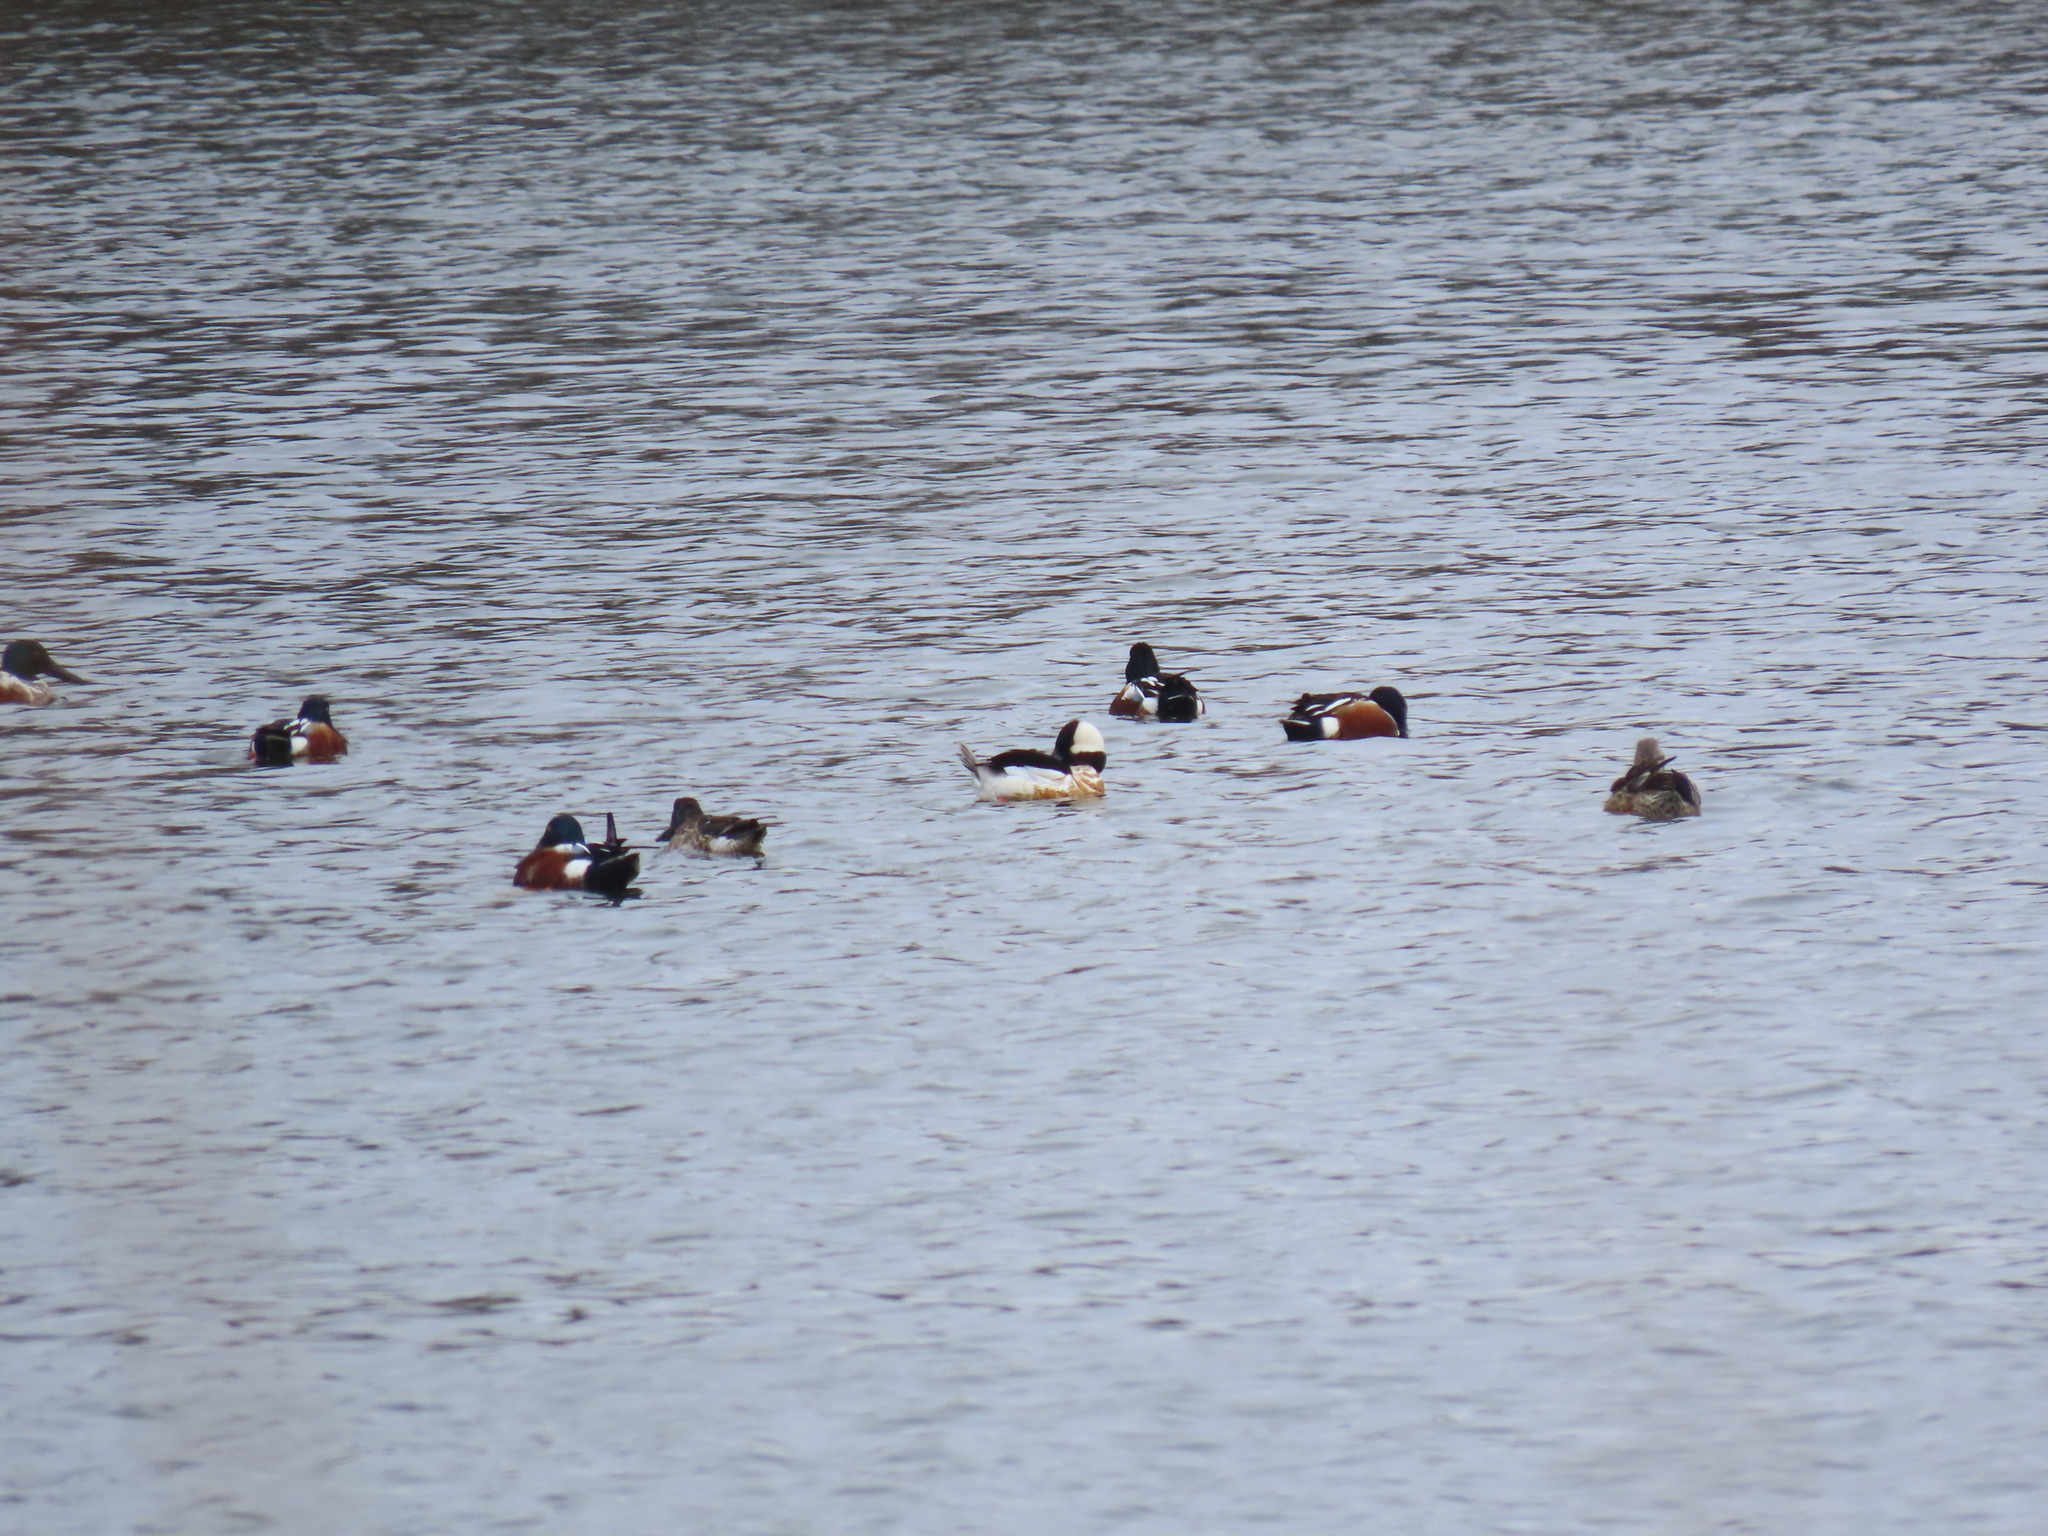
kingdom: Animalia
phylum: Chordata
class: Aves
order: Anseriformes
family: Anatidae
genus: Bucephala
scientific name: Bucephala albeola
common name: Bufflehead
